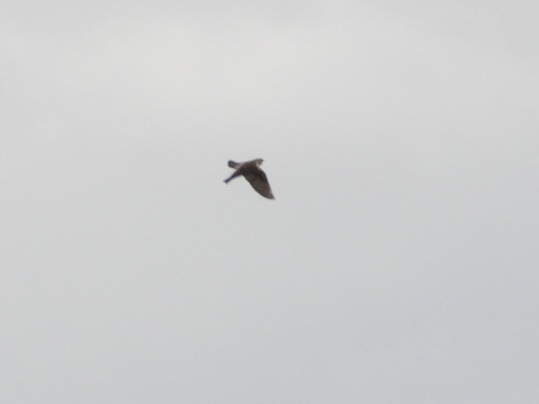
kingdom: Animalia
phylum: Chordata
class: Aves
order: Passeriformes
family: Hirundinidae
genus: Stelgidopteryx
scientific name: Stelgidopteryx serripennis
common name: Northern rough-winged swallow
